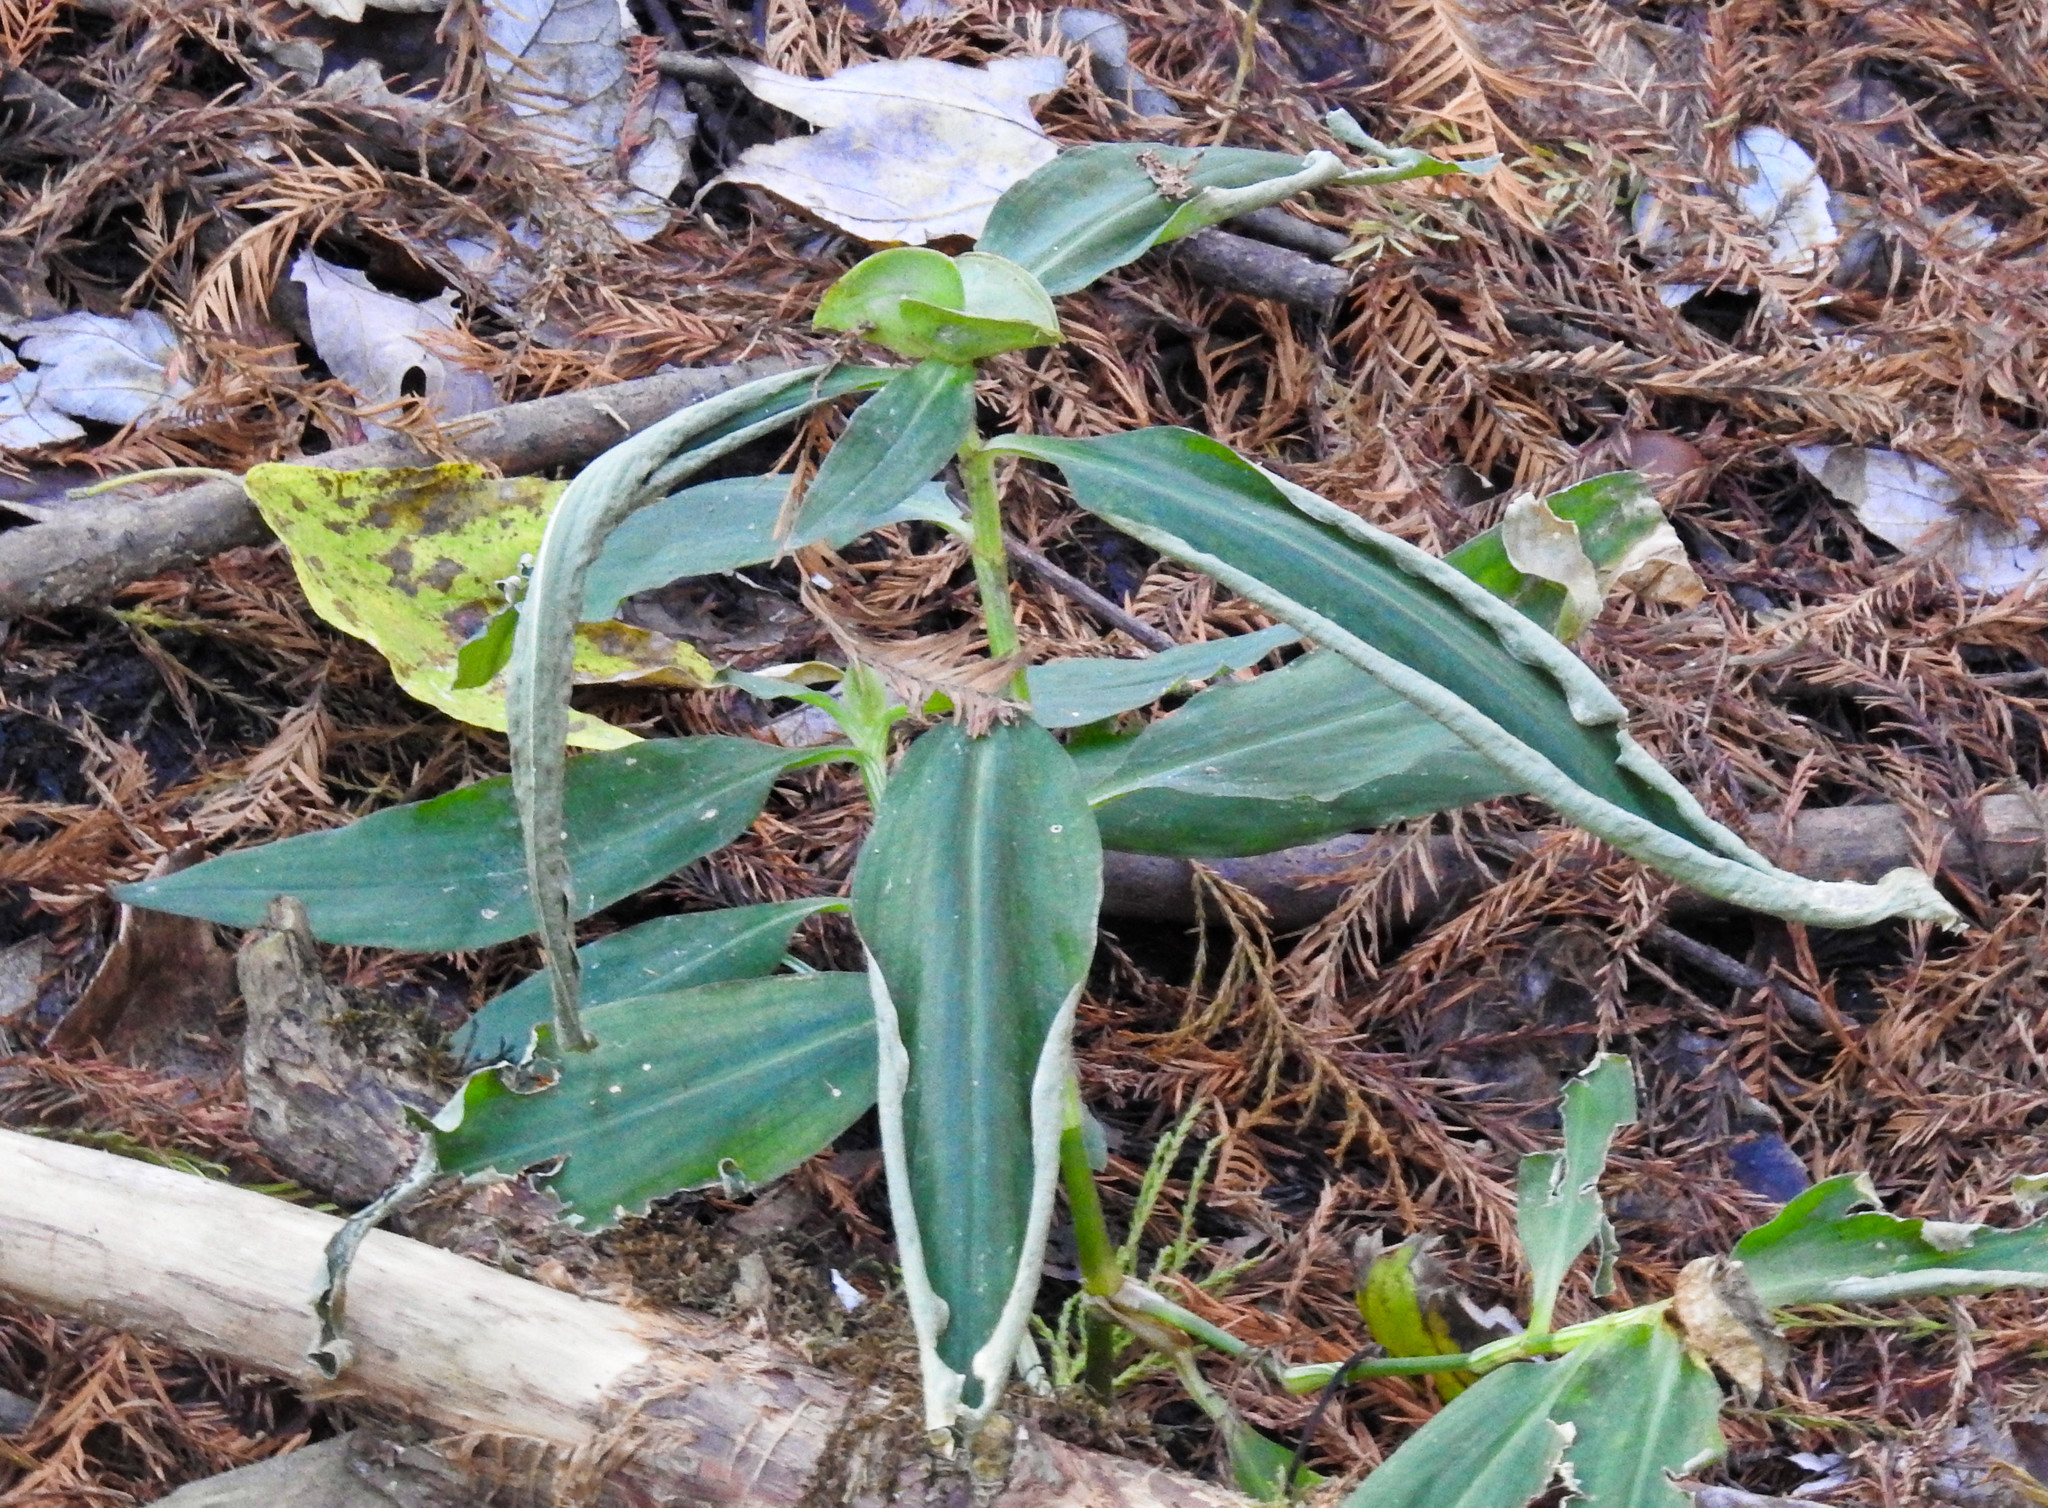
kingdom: Plantae
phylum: Tracheophyta
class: Liliopsida
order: Commelinales
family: Commelinaceae
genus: Commelina
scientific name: Commelina erecta
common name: Blousel blommetjie
